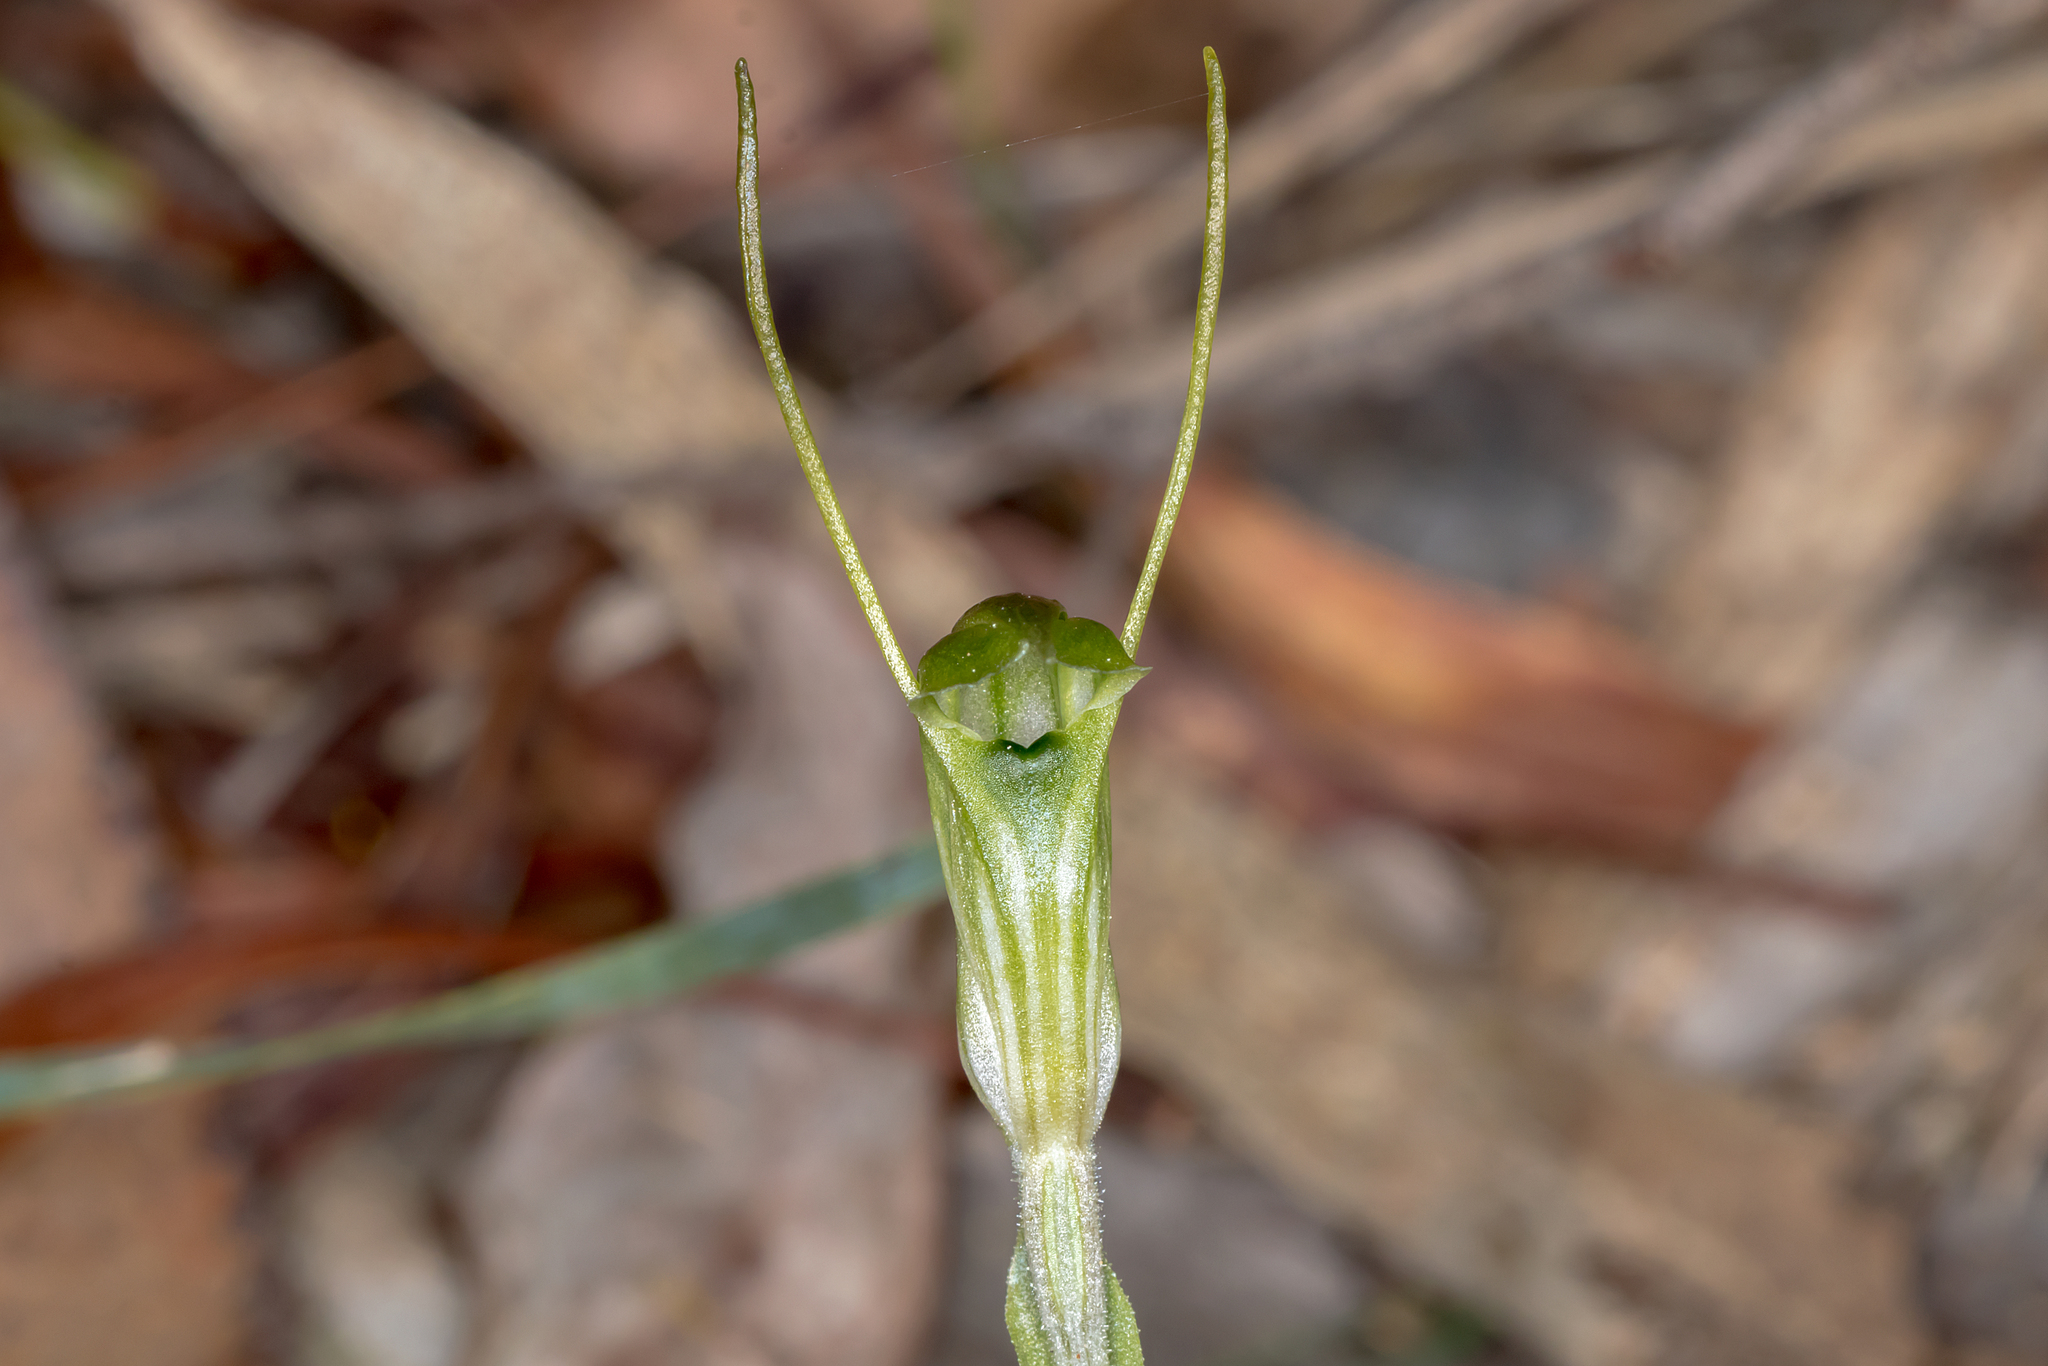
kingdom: Plantae
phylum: Tracheophyta
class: Liliopsida
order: Asparagales
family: Orchidaceae
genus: Pterostylis
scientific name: Pterostylis nana
